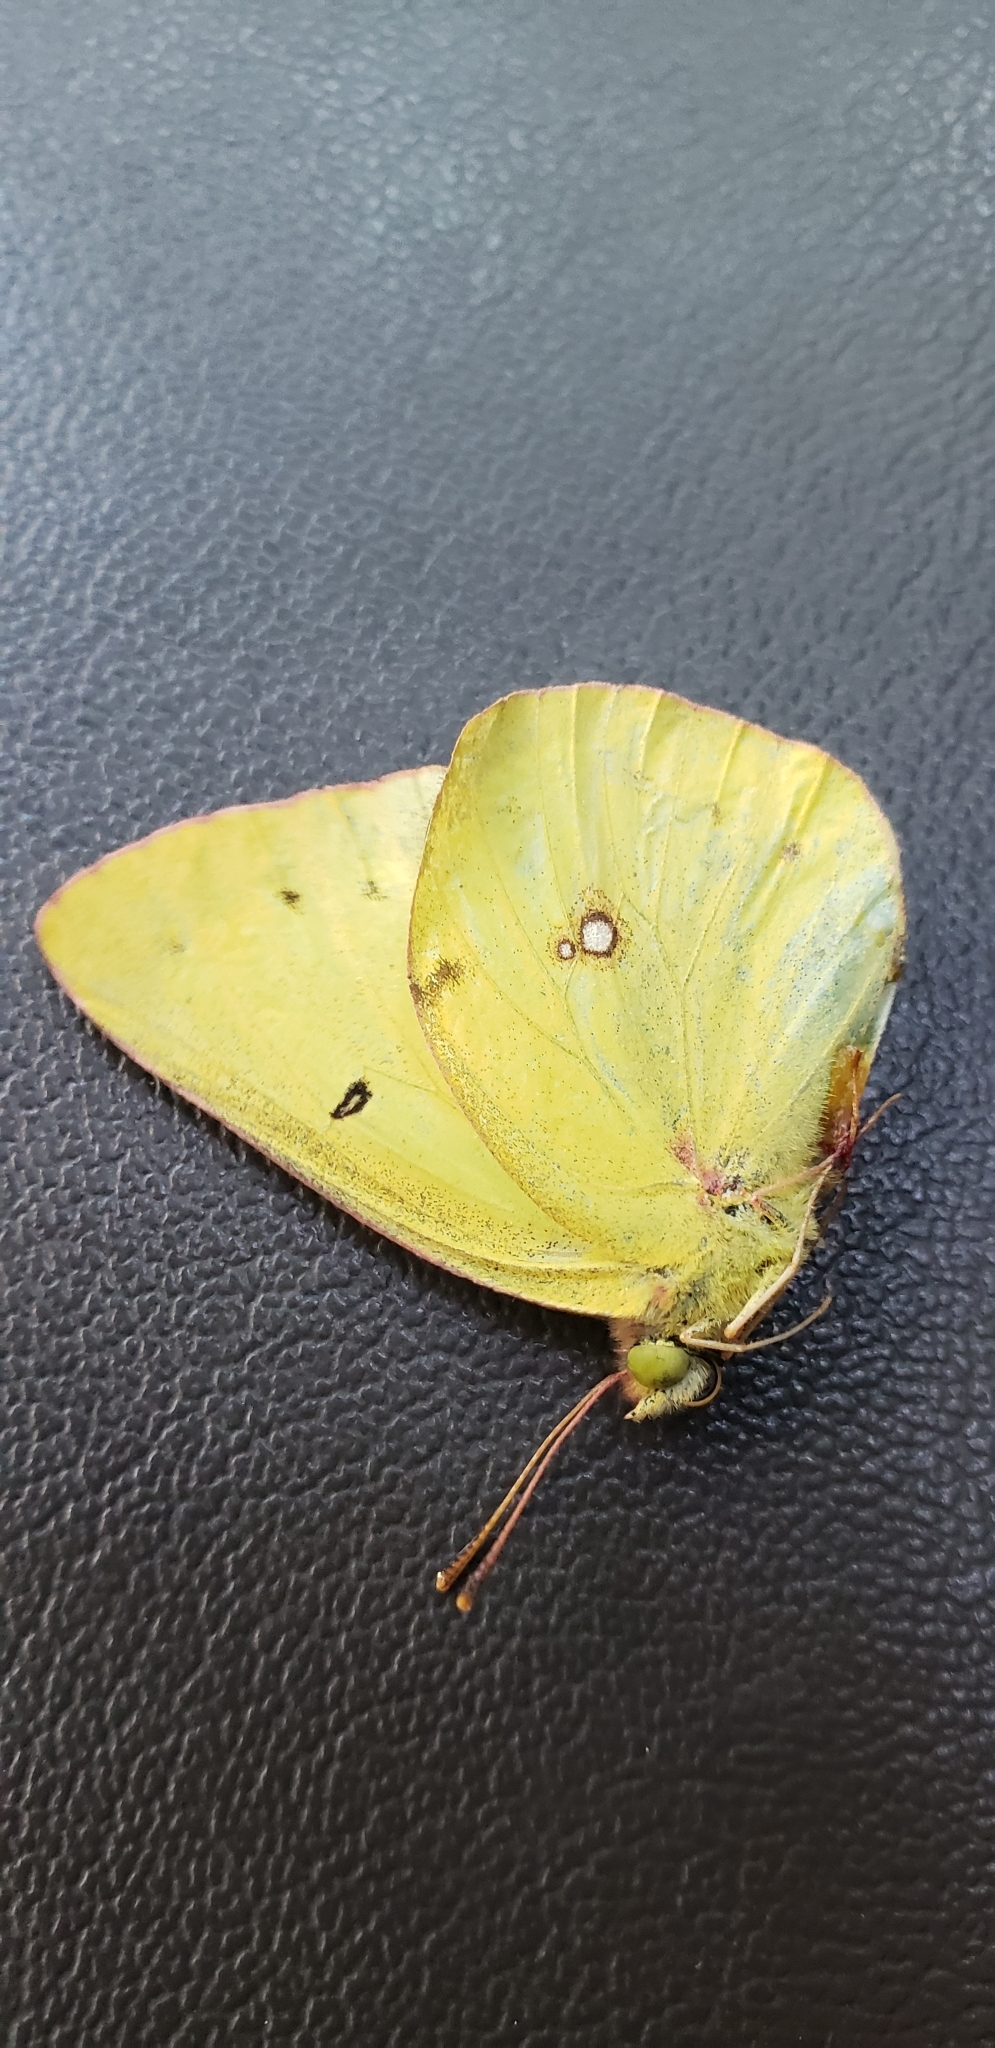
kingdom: Animalia
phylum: Arthropoda
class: Insecta
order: Lepidoptera
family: Pieridae
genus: Colias
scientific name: Colias philodice
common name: Clouded sulphur
